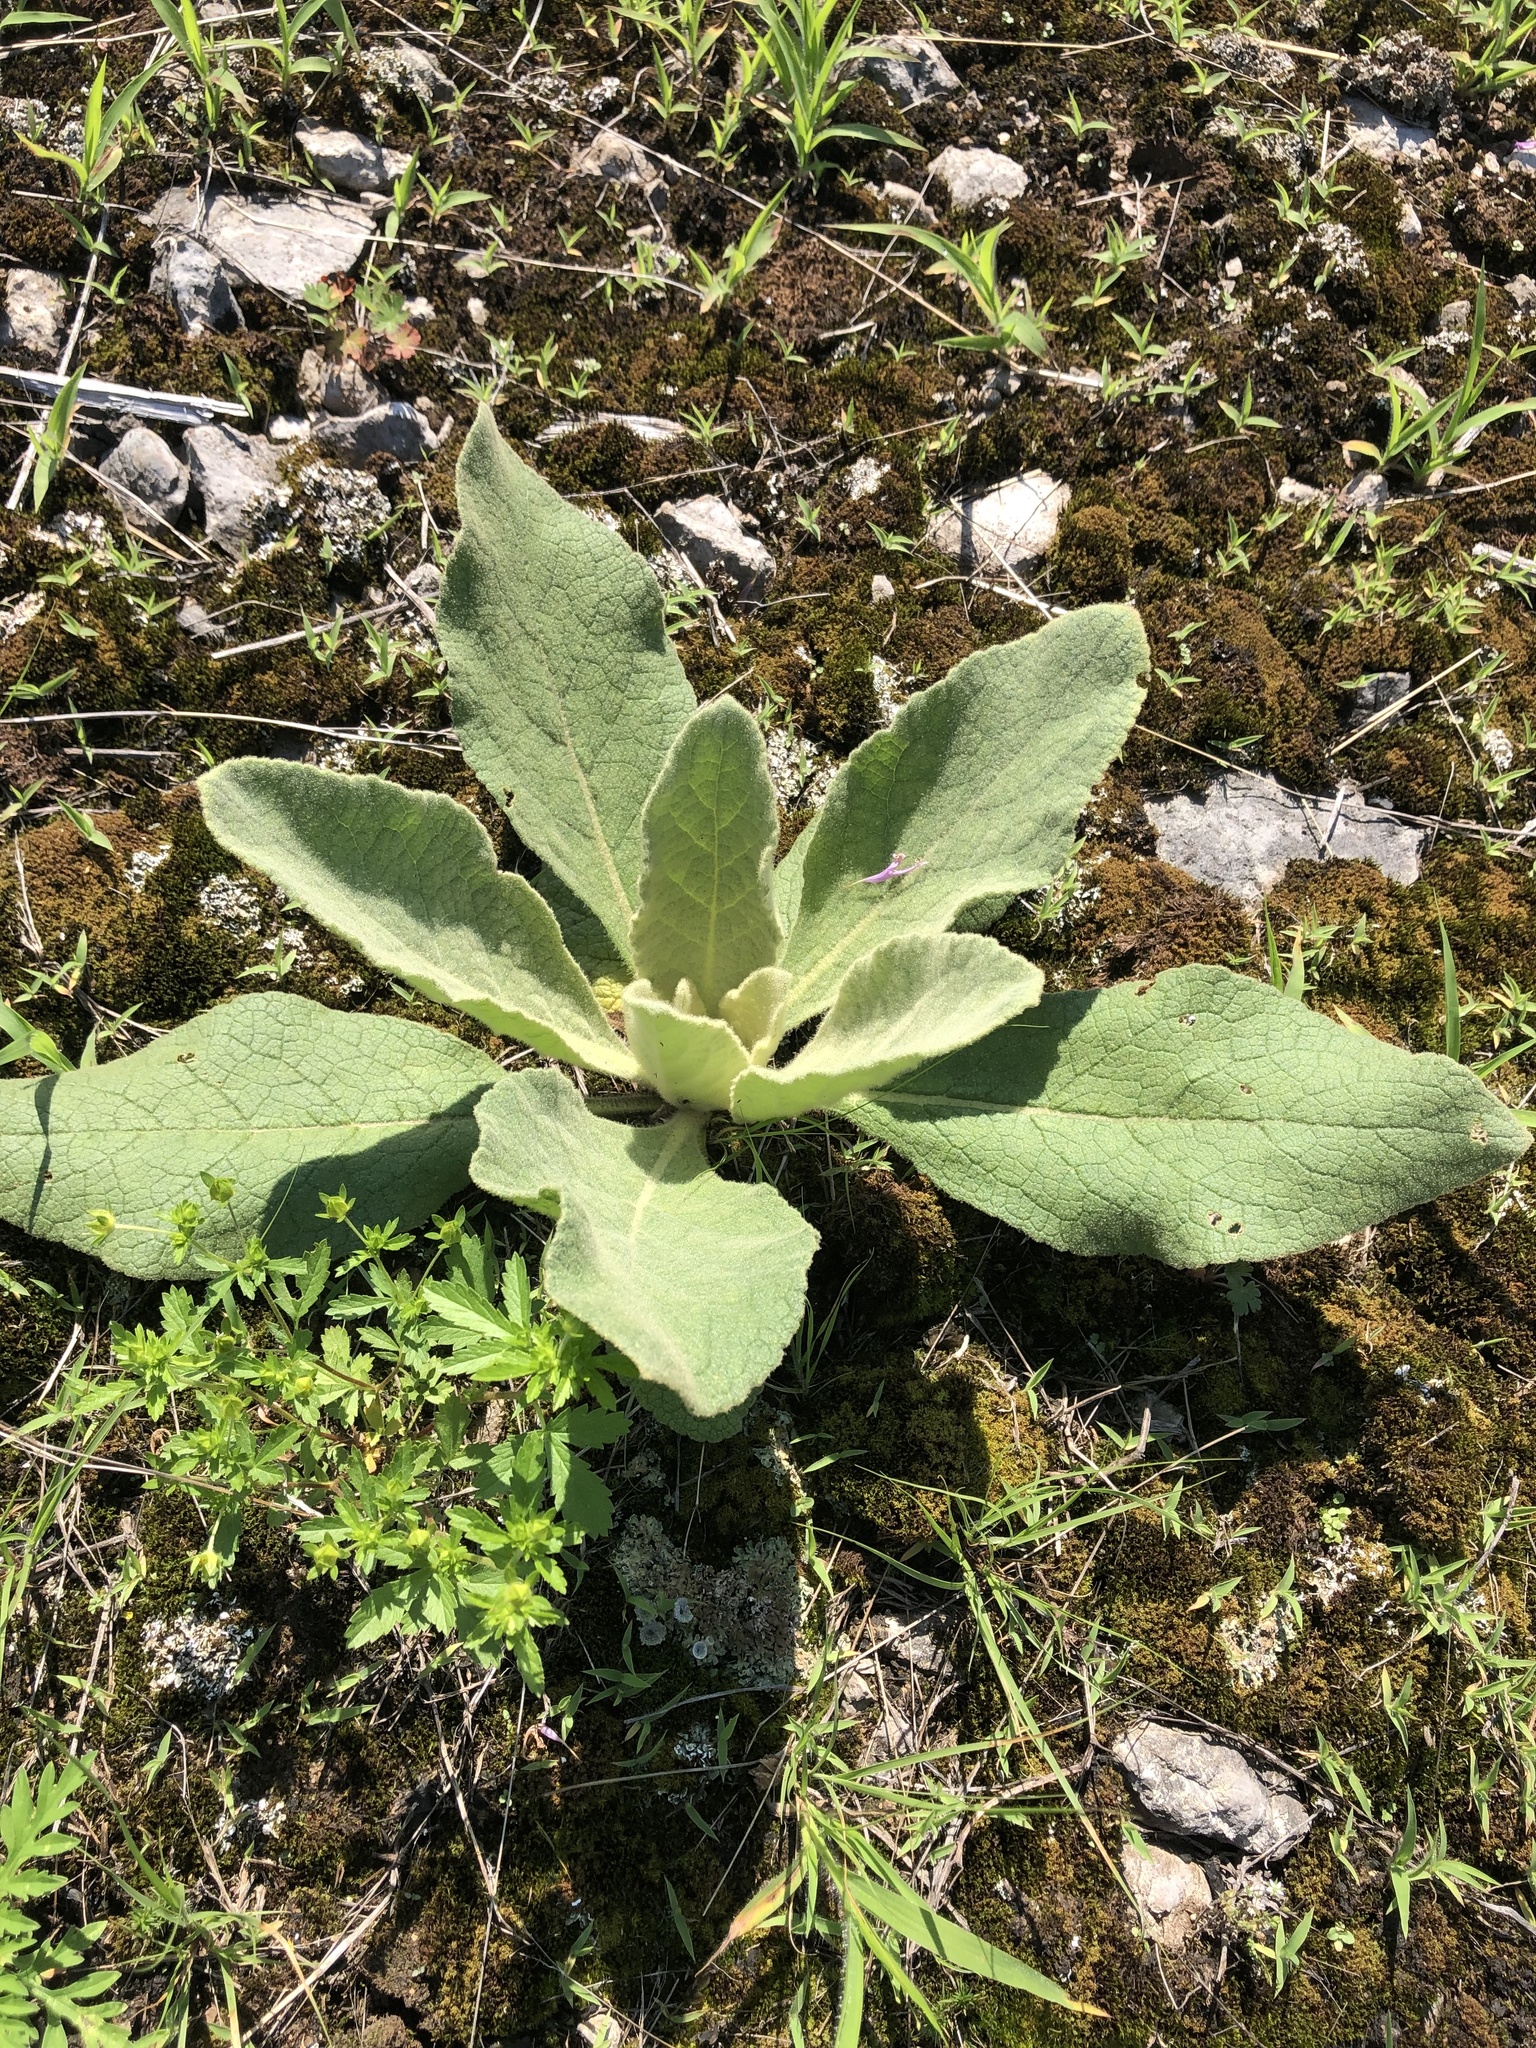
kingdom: Plantae
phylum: Tracheophyta
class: Magnoliopsida
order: Lamiales
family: Scrophulariaceae
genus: Verbascum
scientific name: Verbascum thapsus
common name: Common mullein
